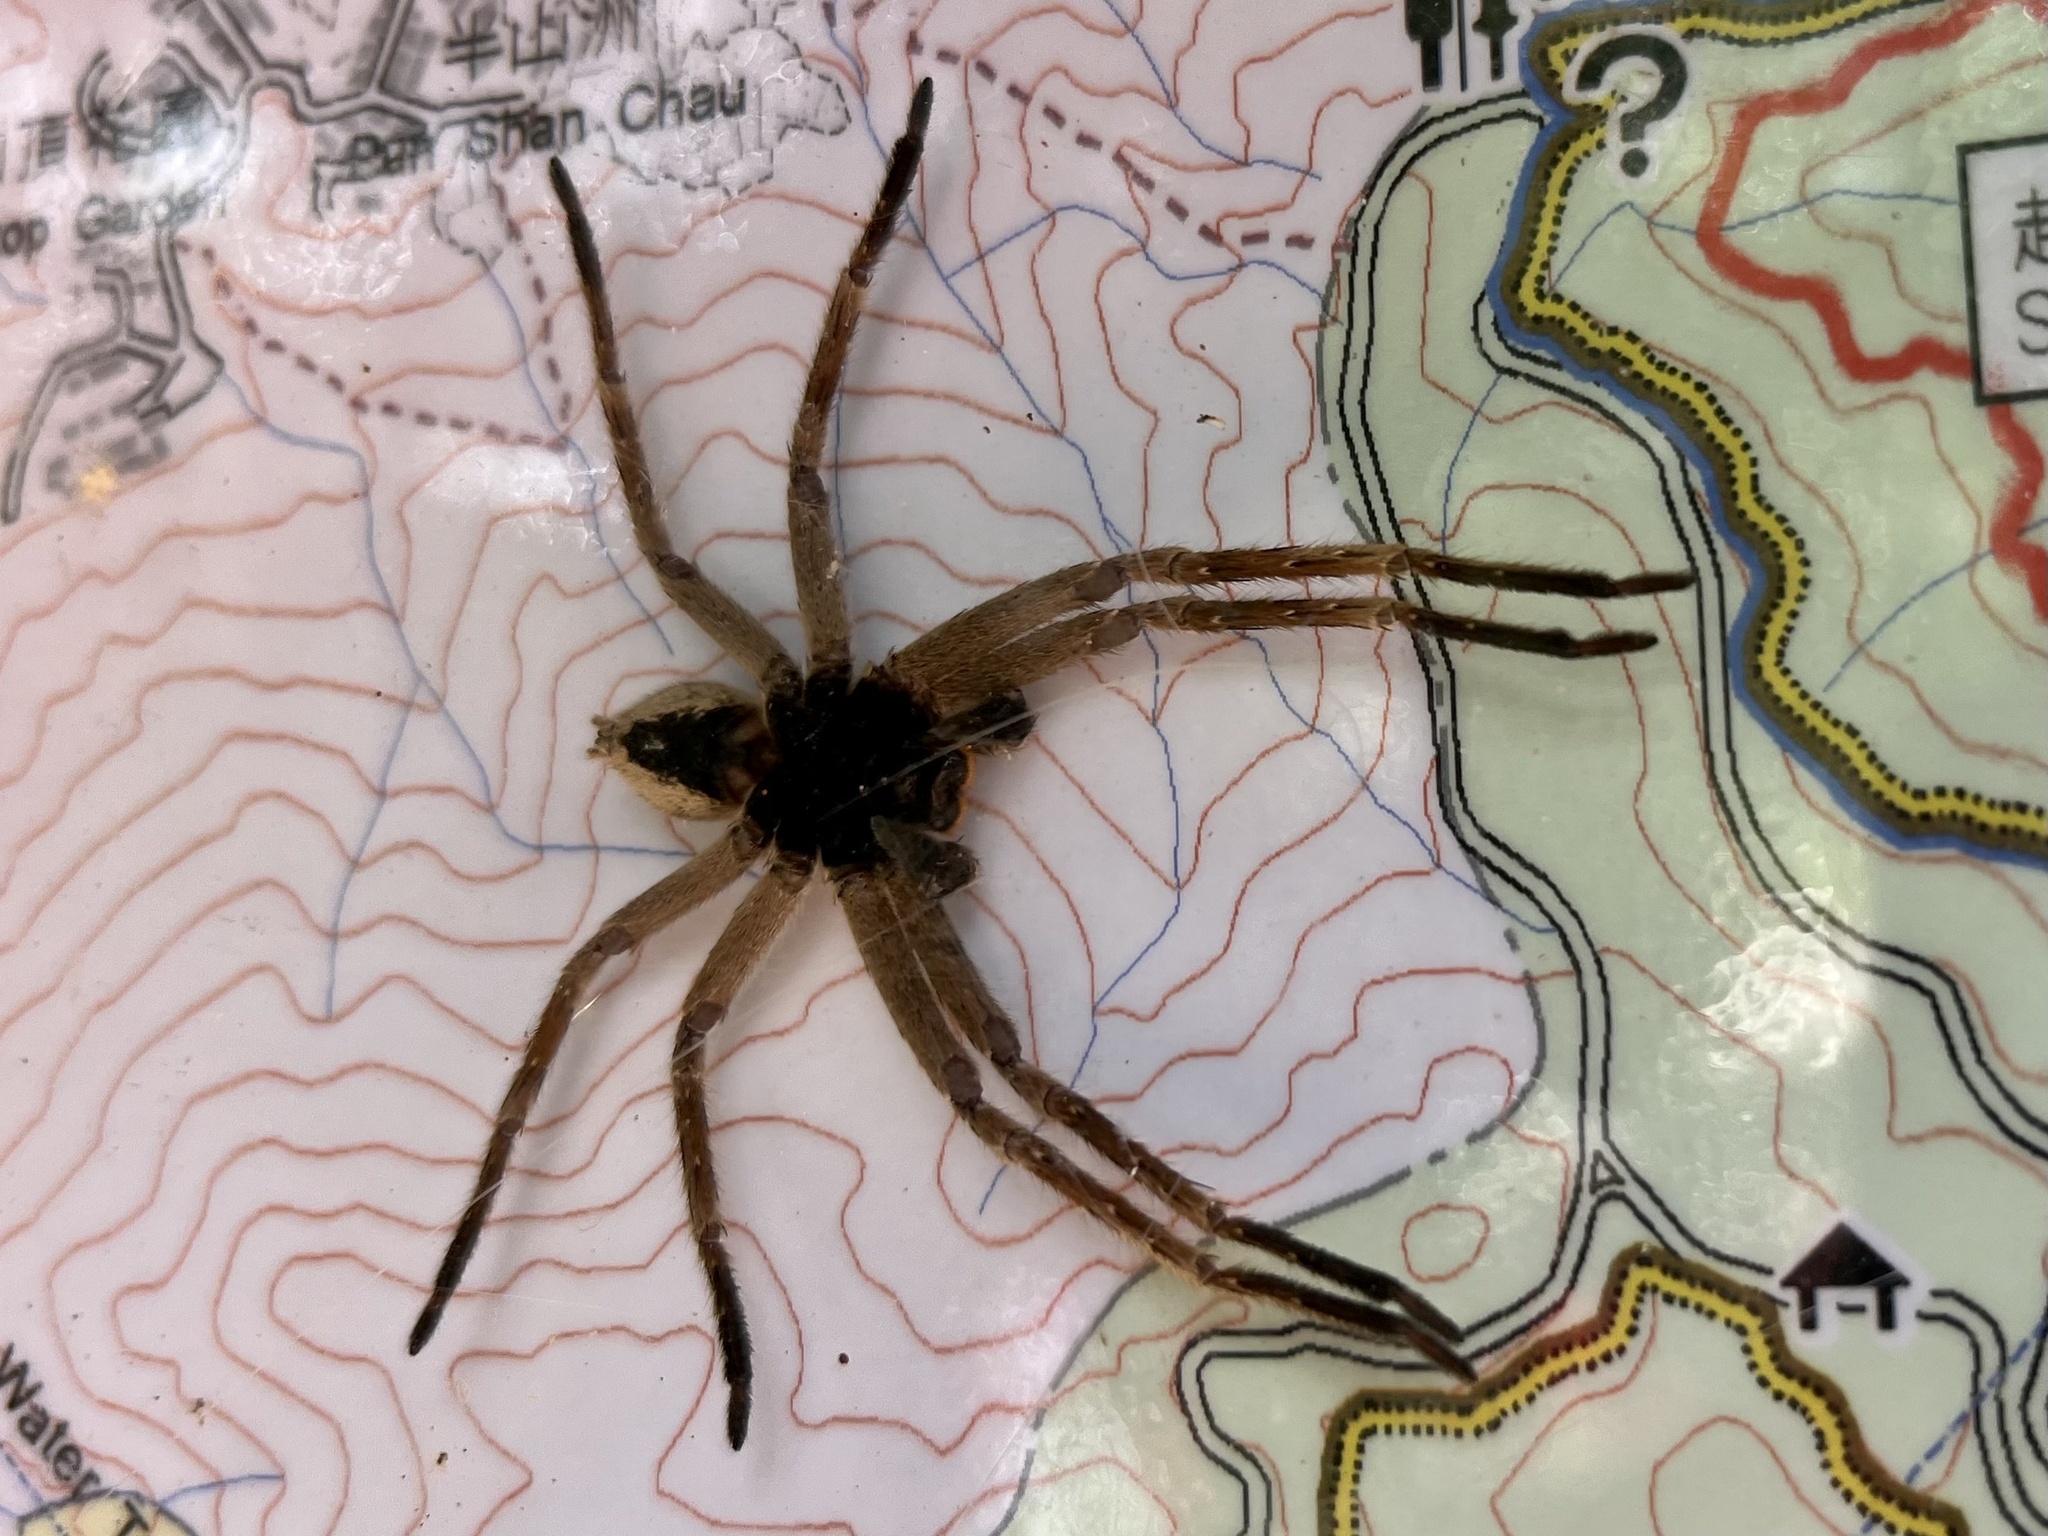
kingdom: Animalia
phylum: Arthropoda
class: Arachnida
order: Araneae
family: Sparassidae
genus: Heteropoda
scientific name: Heteropoda pingtungensis
